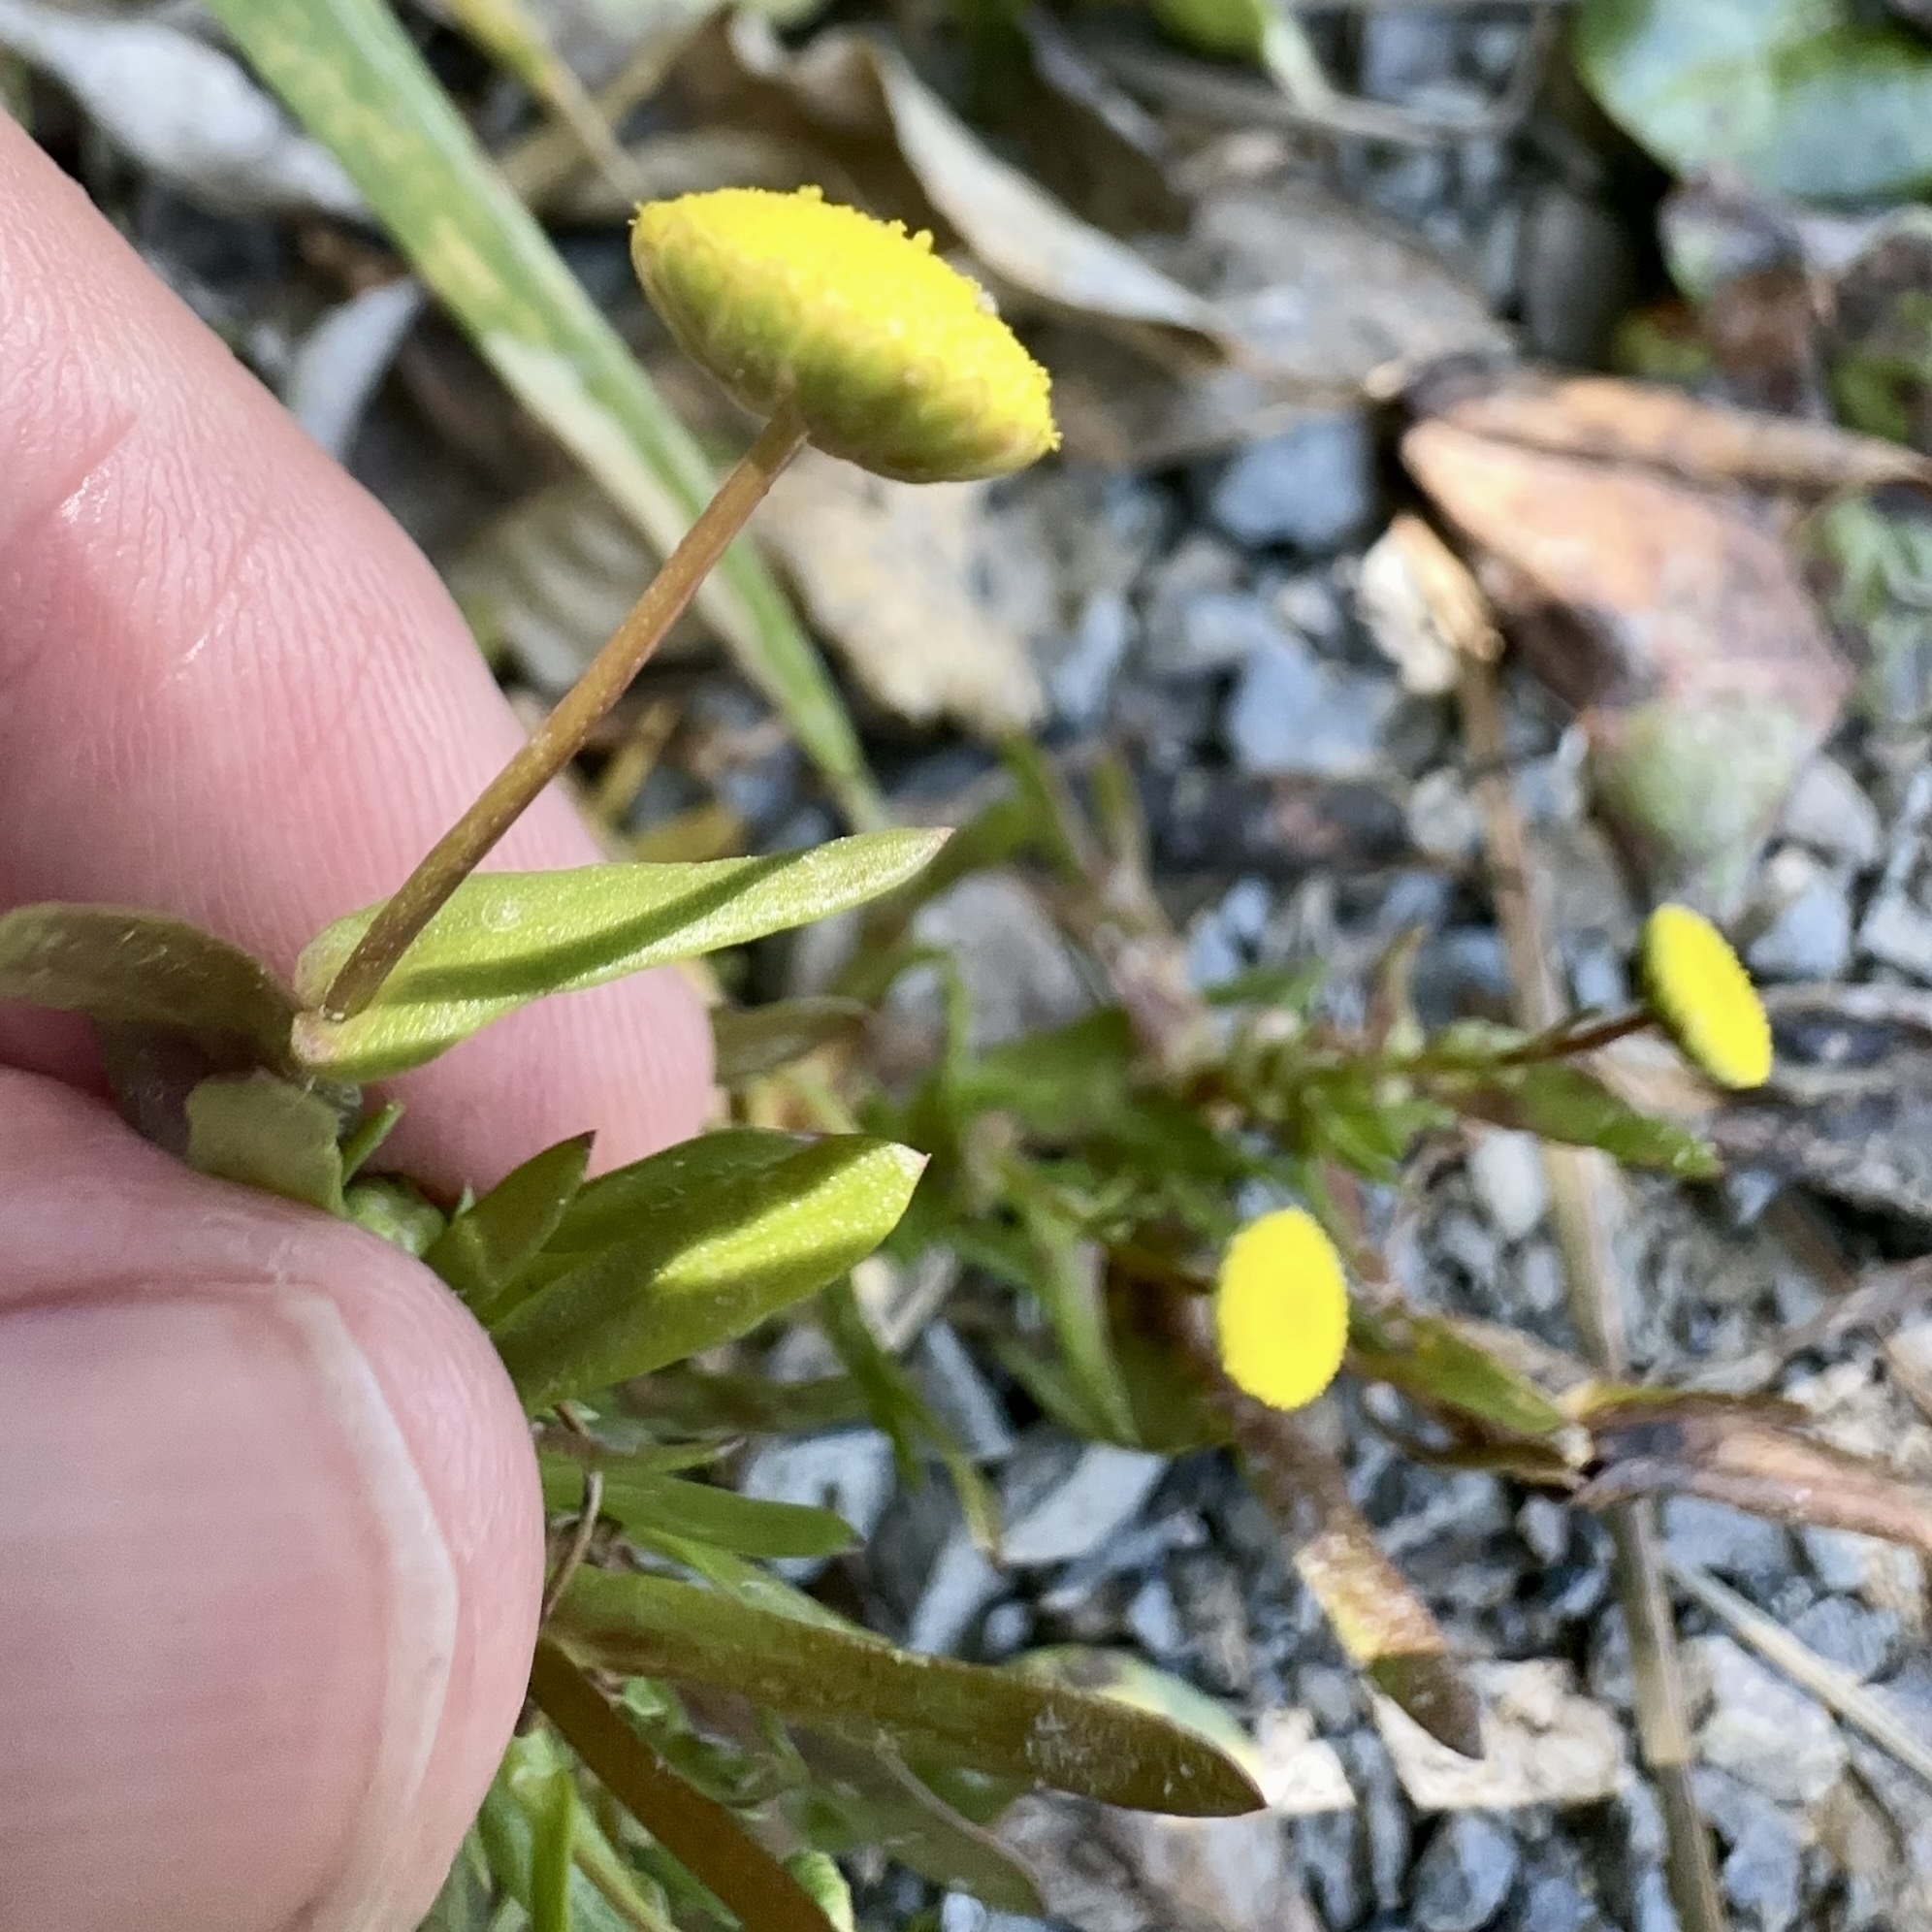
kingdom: Plantae
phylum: Tracheophyta
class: Magnoliopsida
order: Asterales
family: Asteraceae
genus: Cotula
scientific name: Cotula coronopifolia
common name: Buttonweed
